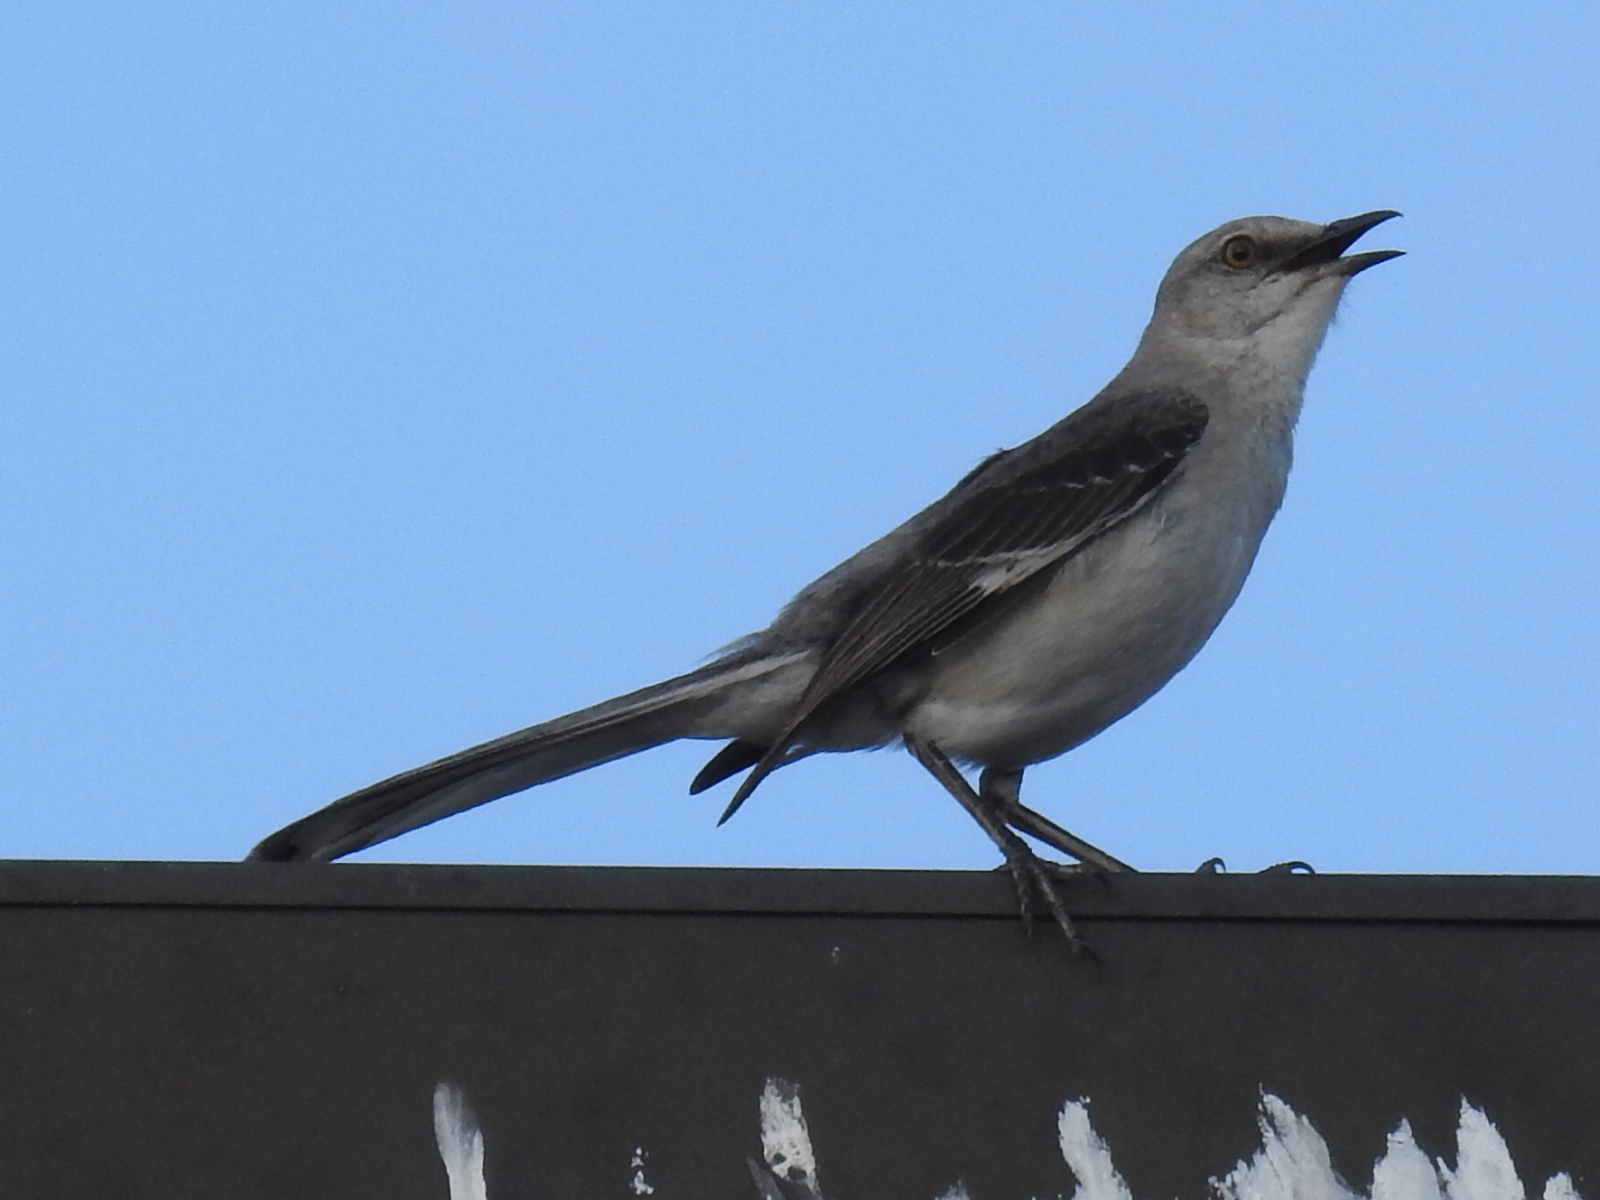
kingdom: Animalia
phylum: Chordata
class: Aves
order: Passeriformes
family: Mimidae
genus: Mimus
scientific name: Mimus polyglottos
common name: Northern mockingbird
